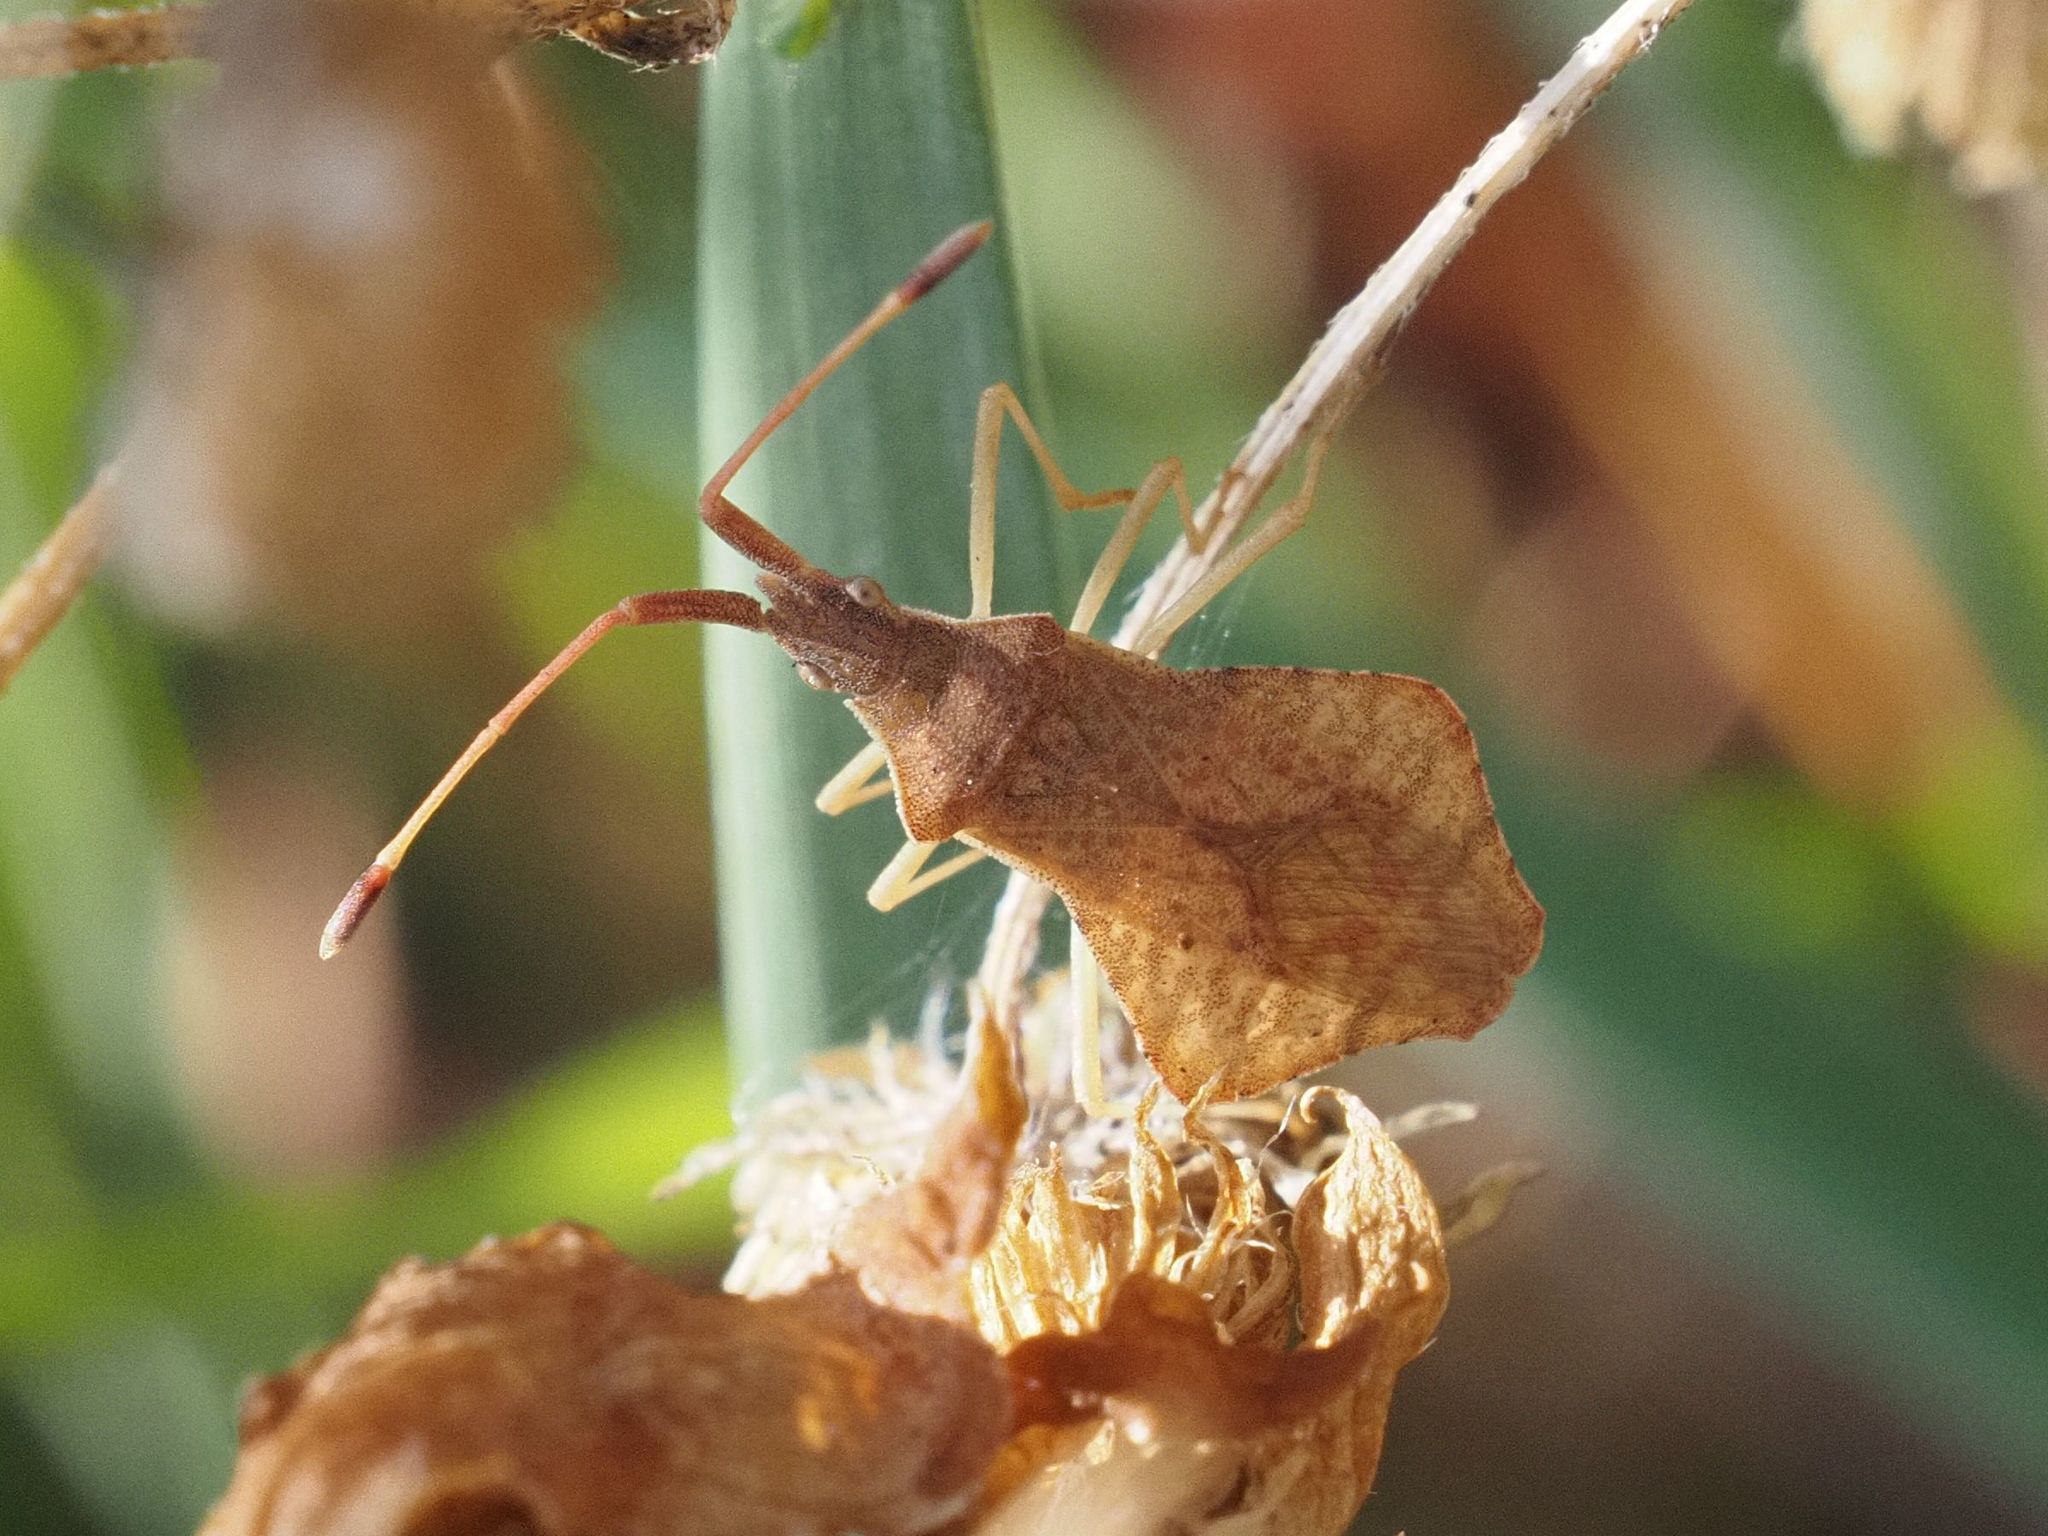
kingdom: Animalia
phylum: Arthropoda
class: Insecta
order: Hemiptera
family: Coreidae
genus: Syromastus
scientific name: Syromastus rhombeus
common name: Rhombic leatherbug
